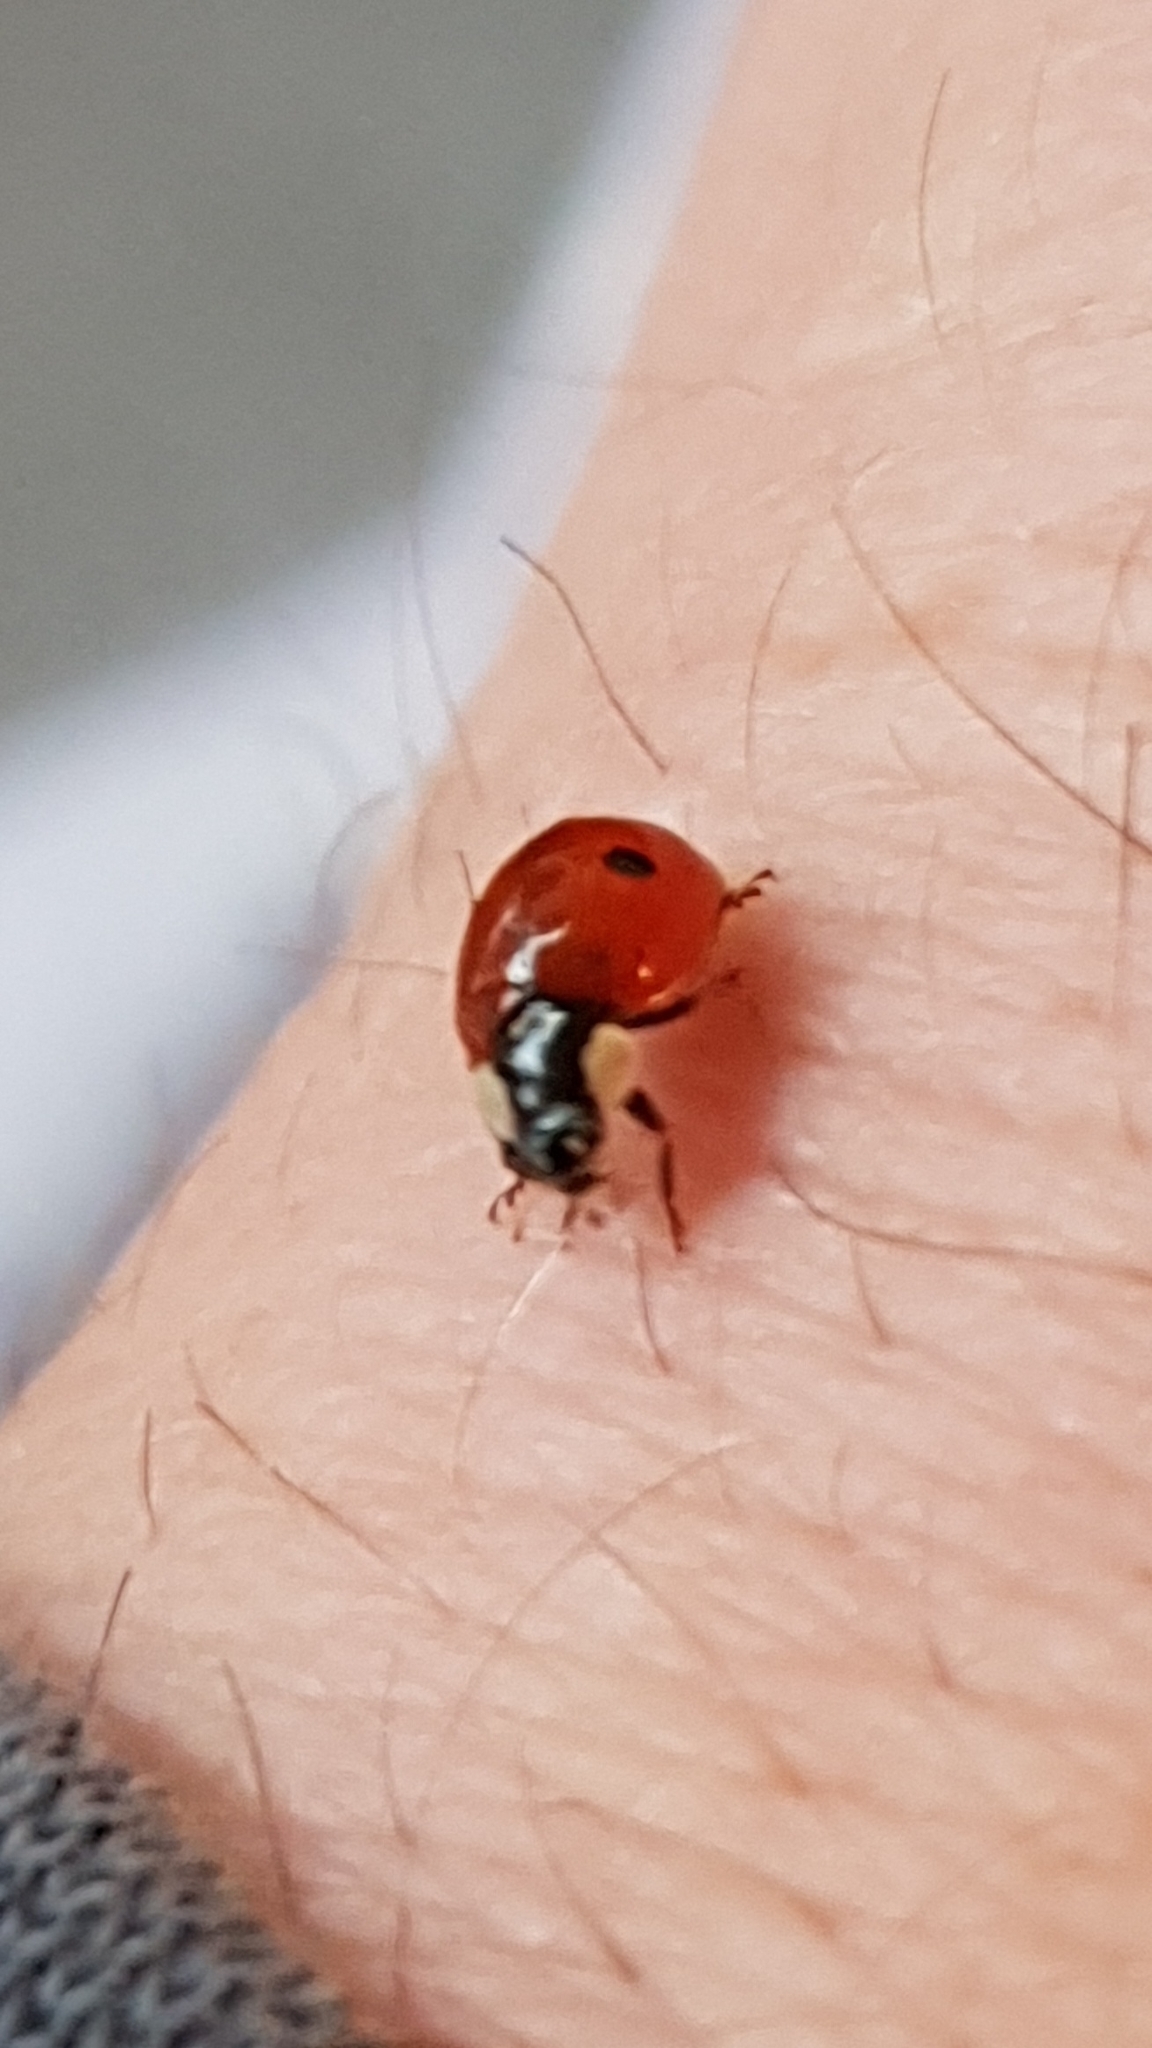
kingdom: Animalia
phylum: Arthropoda
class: Insecta
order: Coleoptera
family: Coccinellidae
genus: Adalia
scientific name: Adalia bipunctata
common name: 2-spot ladybird
